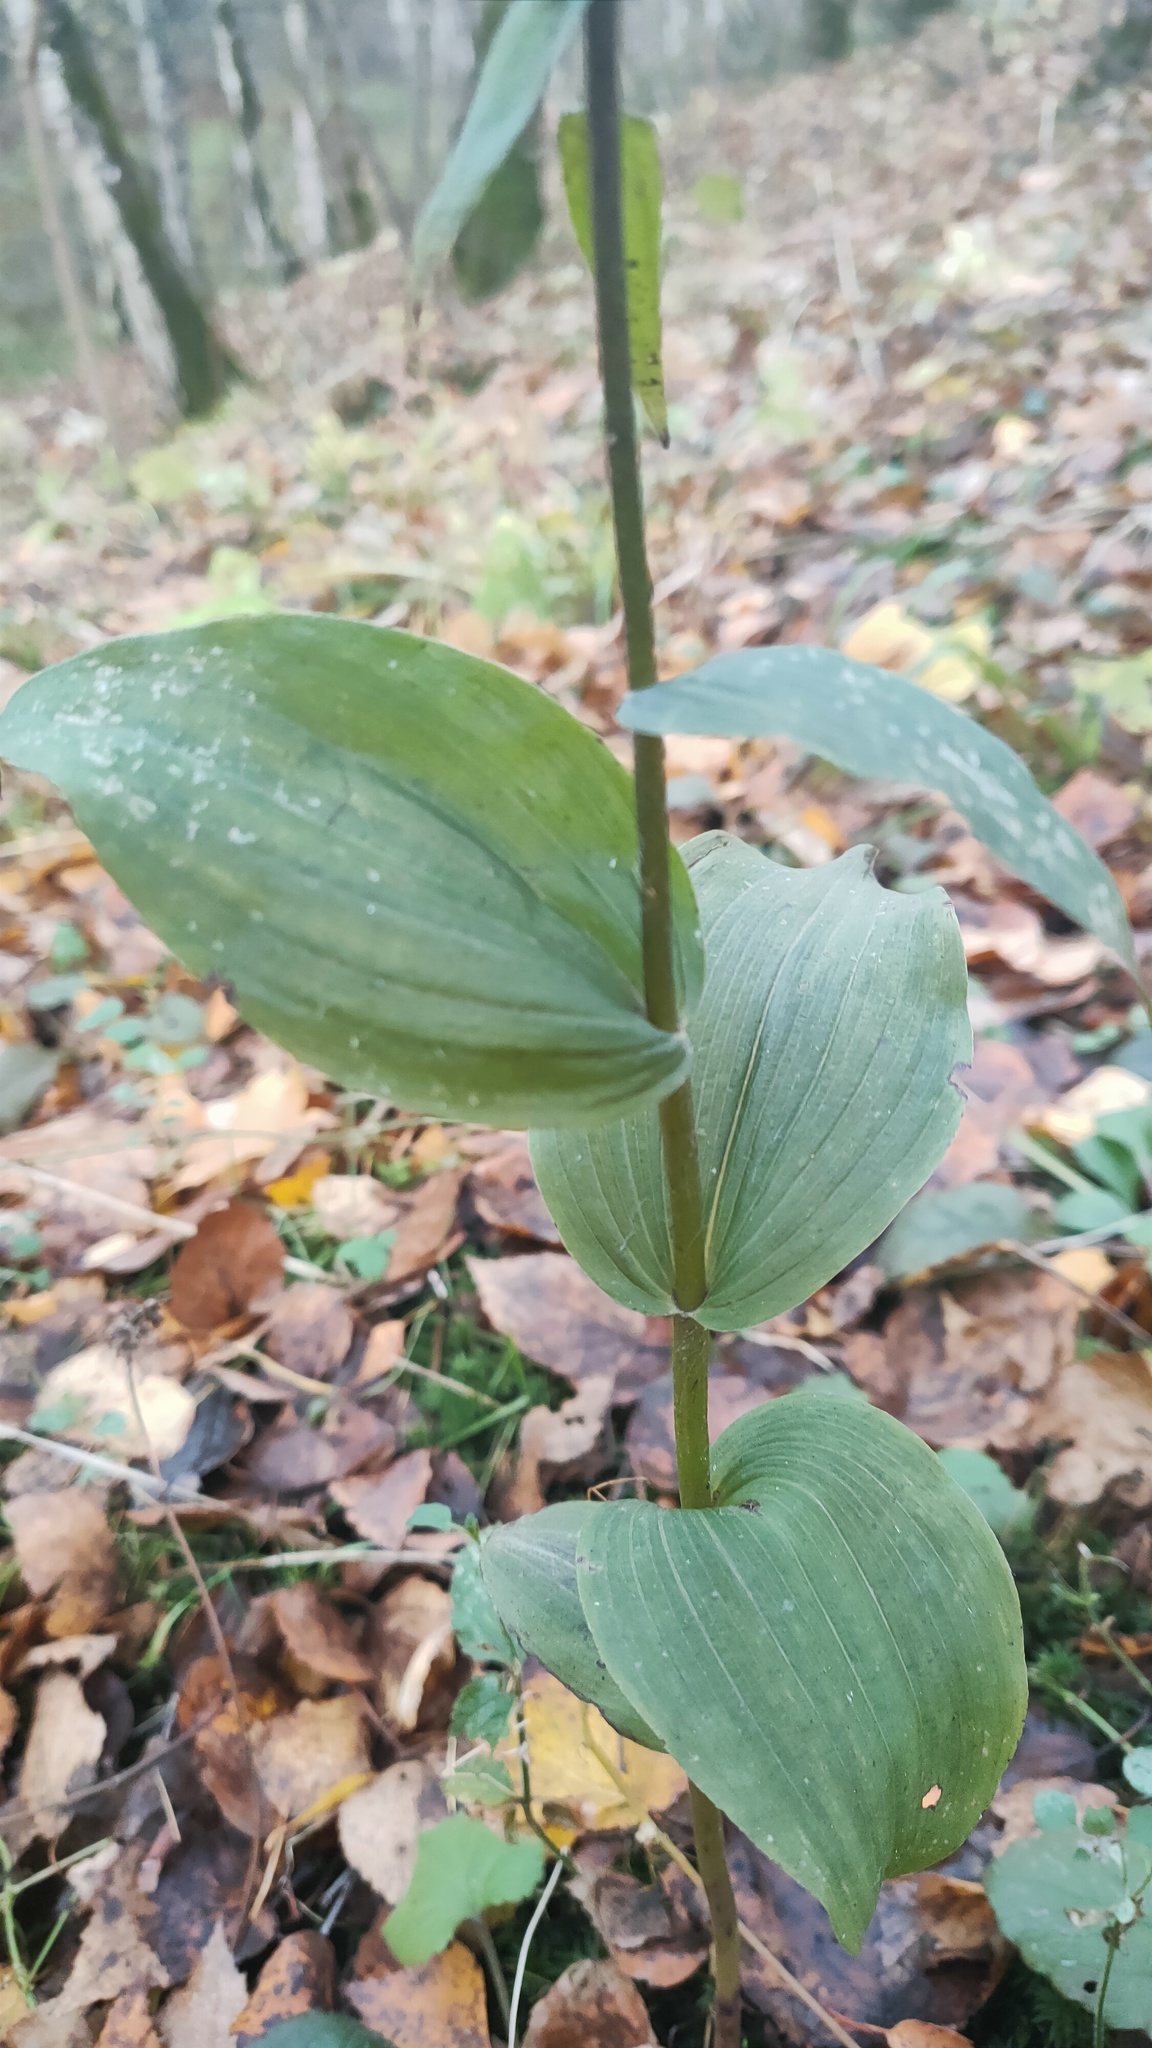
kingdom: Plantae
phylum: Tracheophyta
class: Liliopsida
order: Asparagales
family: Orchidaceae
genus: Epipactis
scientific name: Epipactis helleborine
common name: Broad-leaved helleborine
